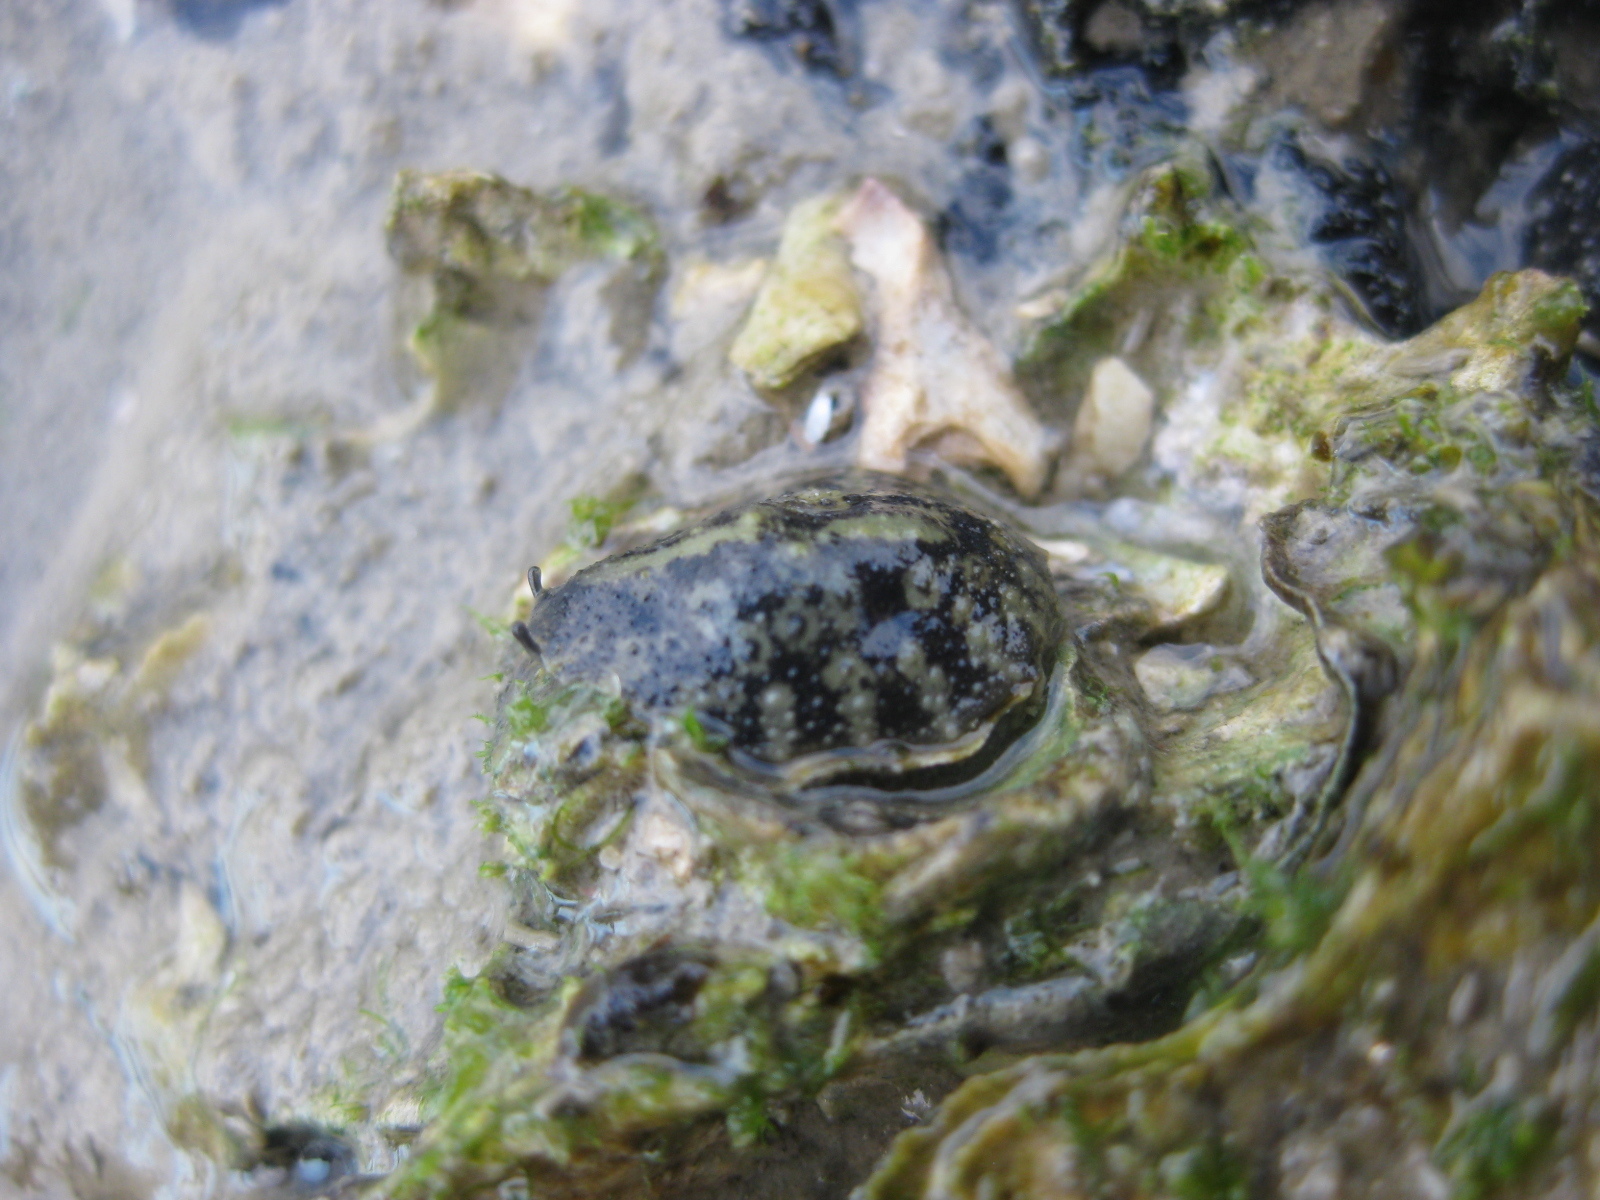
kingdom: Animalia
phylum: Mollusca
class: Gastropoda
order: Systellommatophora
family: Onchidiidae
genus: Onchidella
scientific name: Onchidella nigricans
